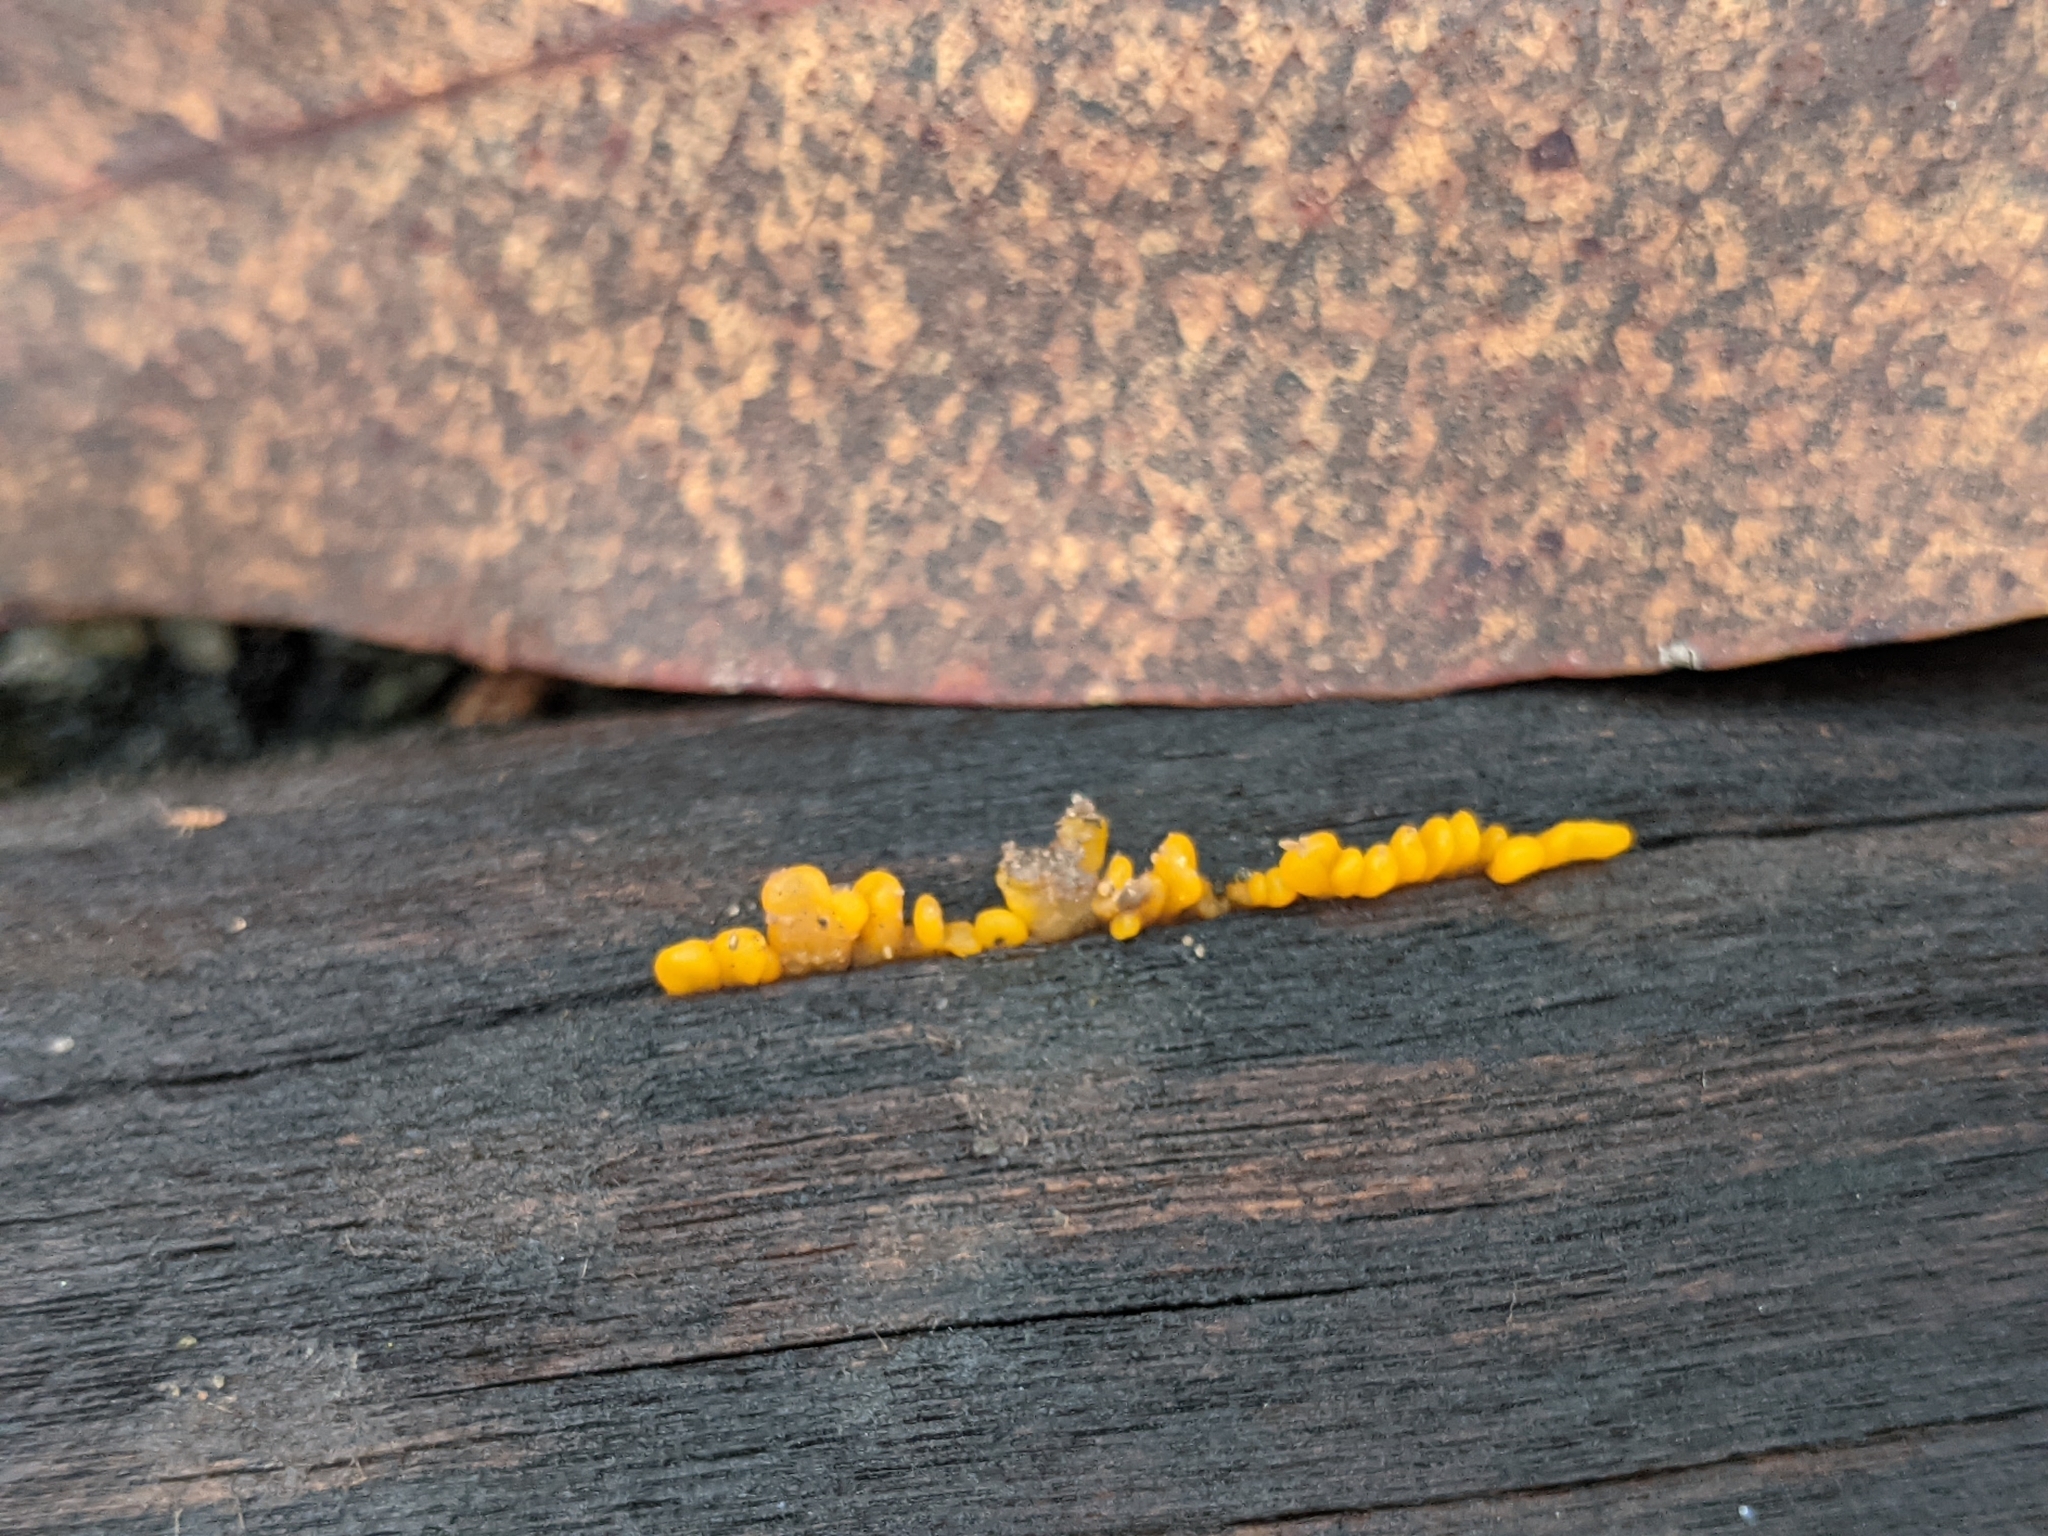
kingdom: Fungi
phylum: Basidiomycota
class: Dacrymycetes
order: Dacrymycetales
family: Dacrymycetaceae
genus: Dacrymyces
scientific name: Dacrymyces spathularius
